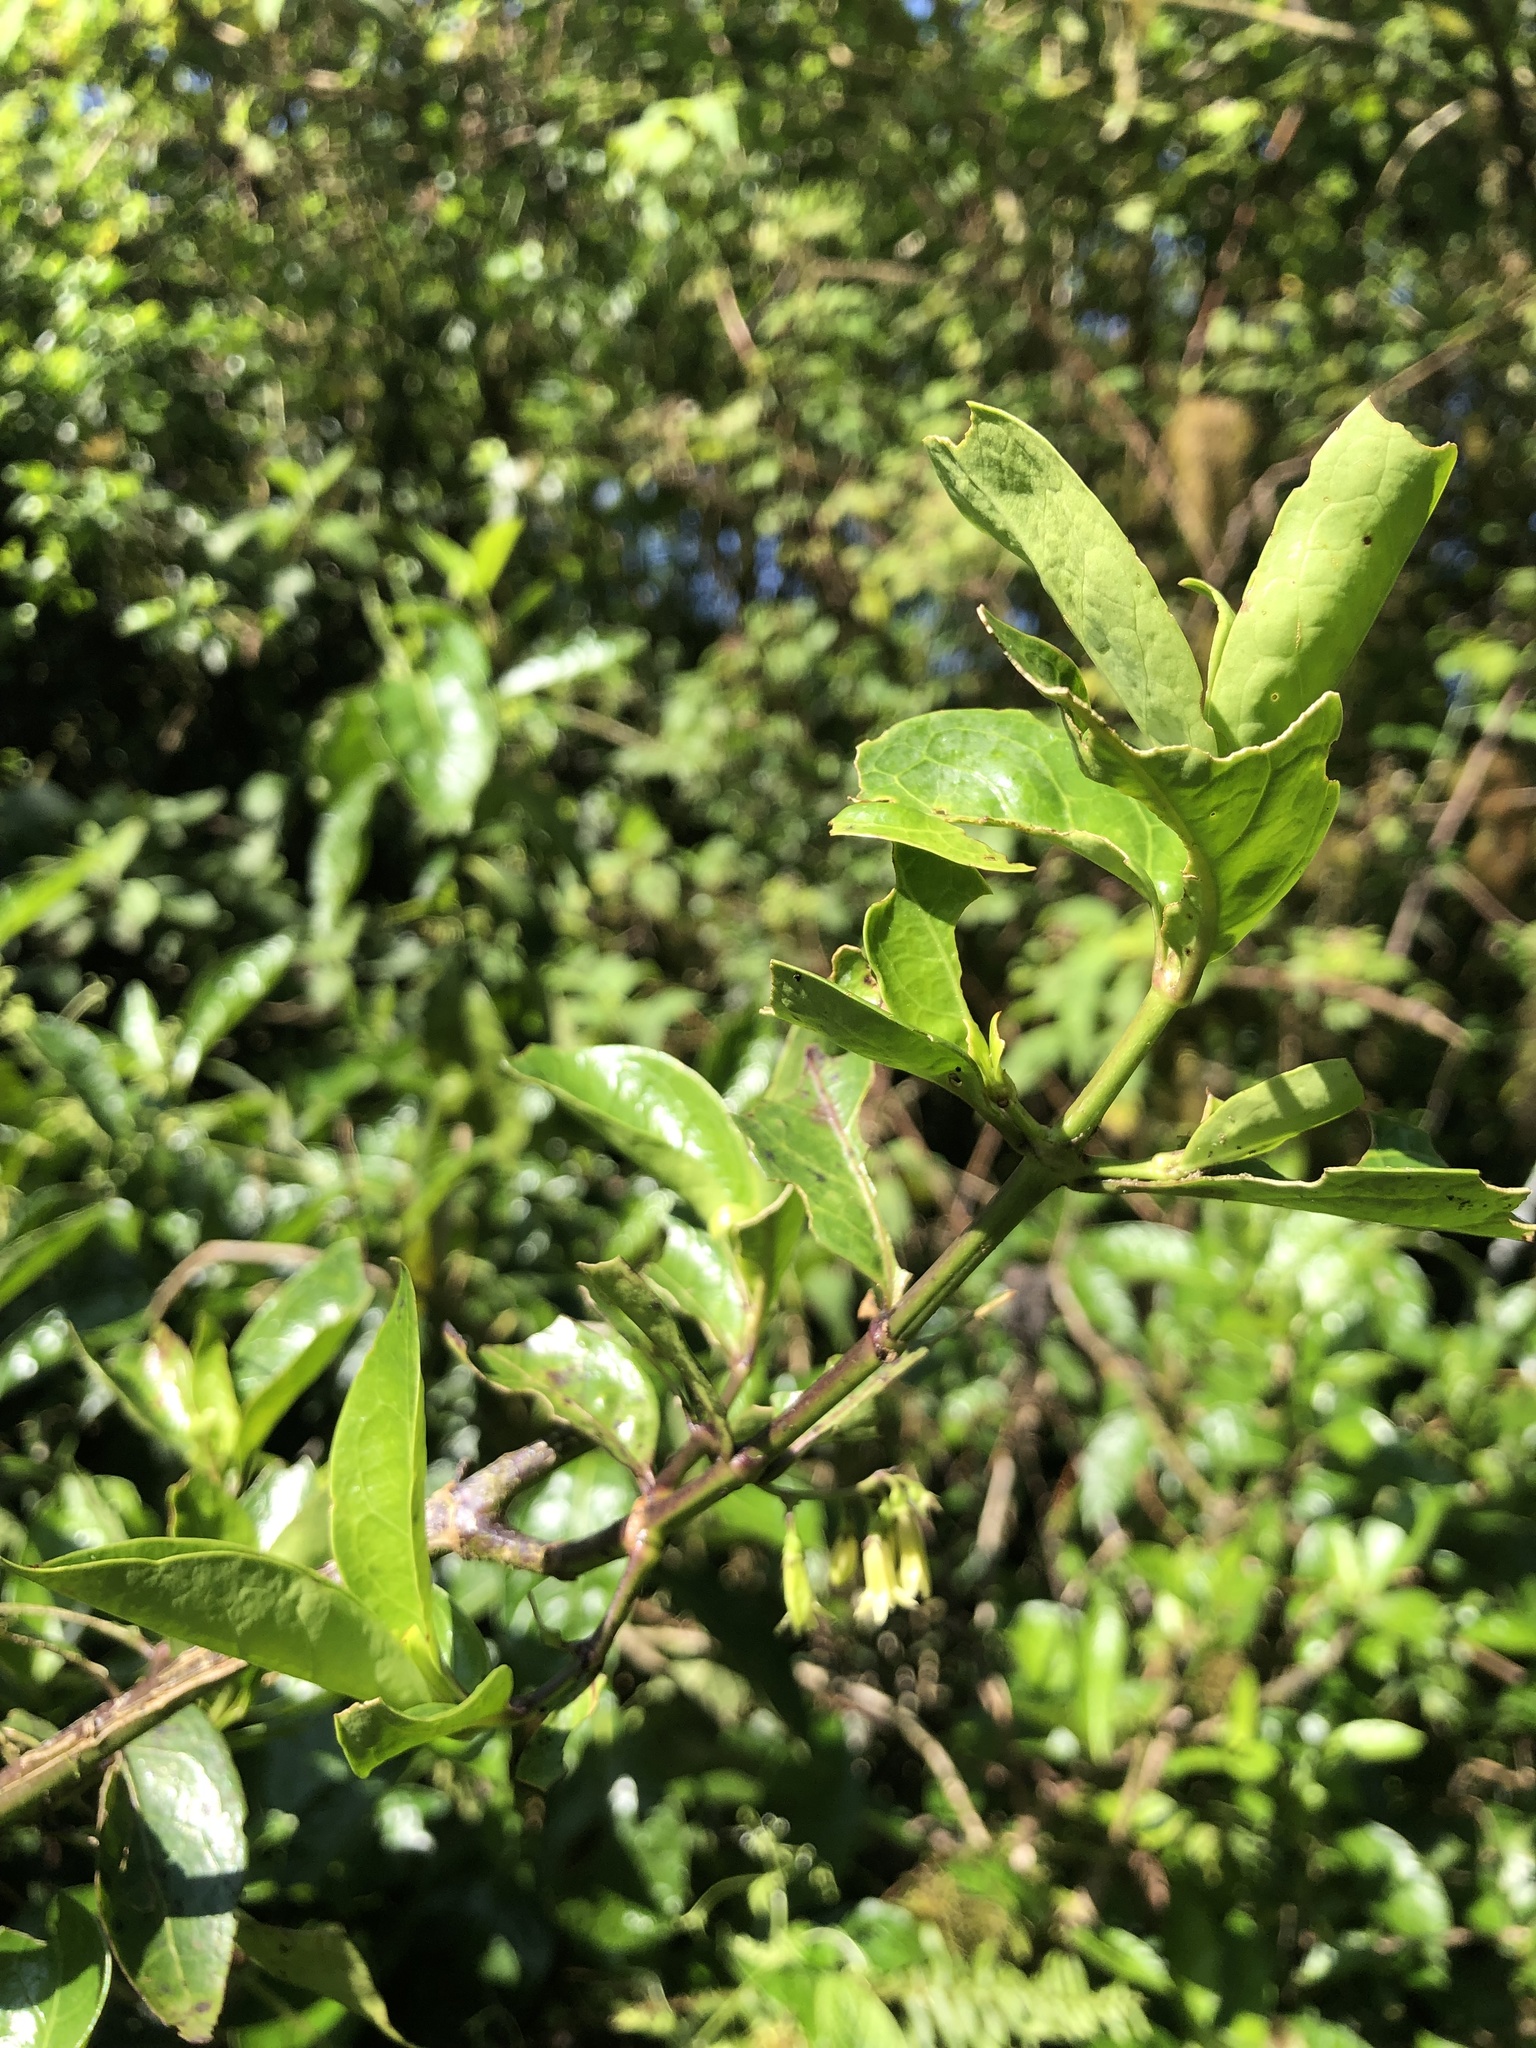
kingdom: Plantae
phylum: Tracheophyta
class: Magnoliopsida
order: Gentianales
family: Rubiaceae
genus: Chiococca
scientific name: Chiococca alba
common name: Snowberry
